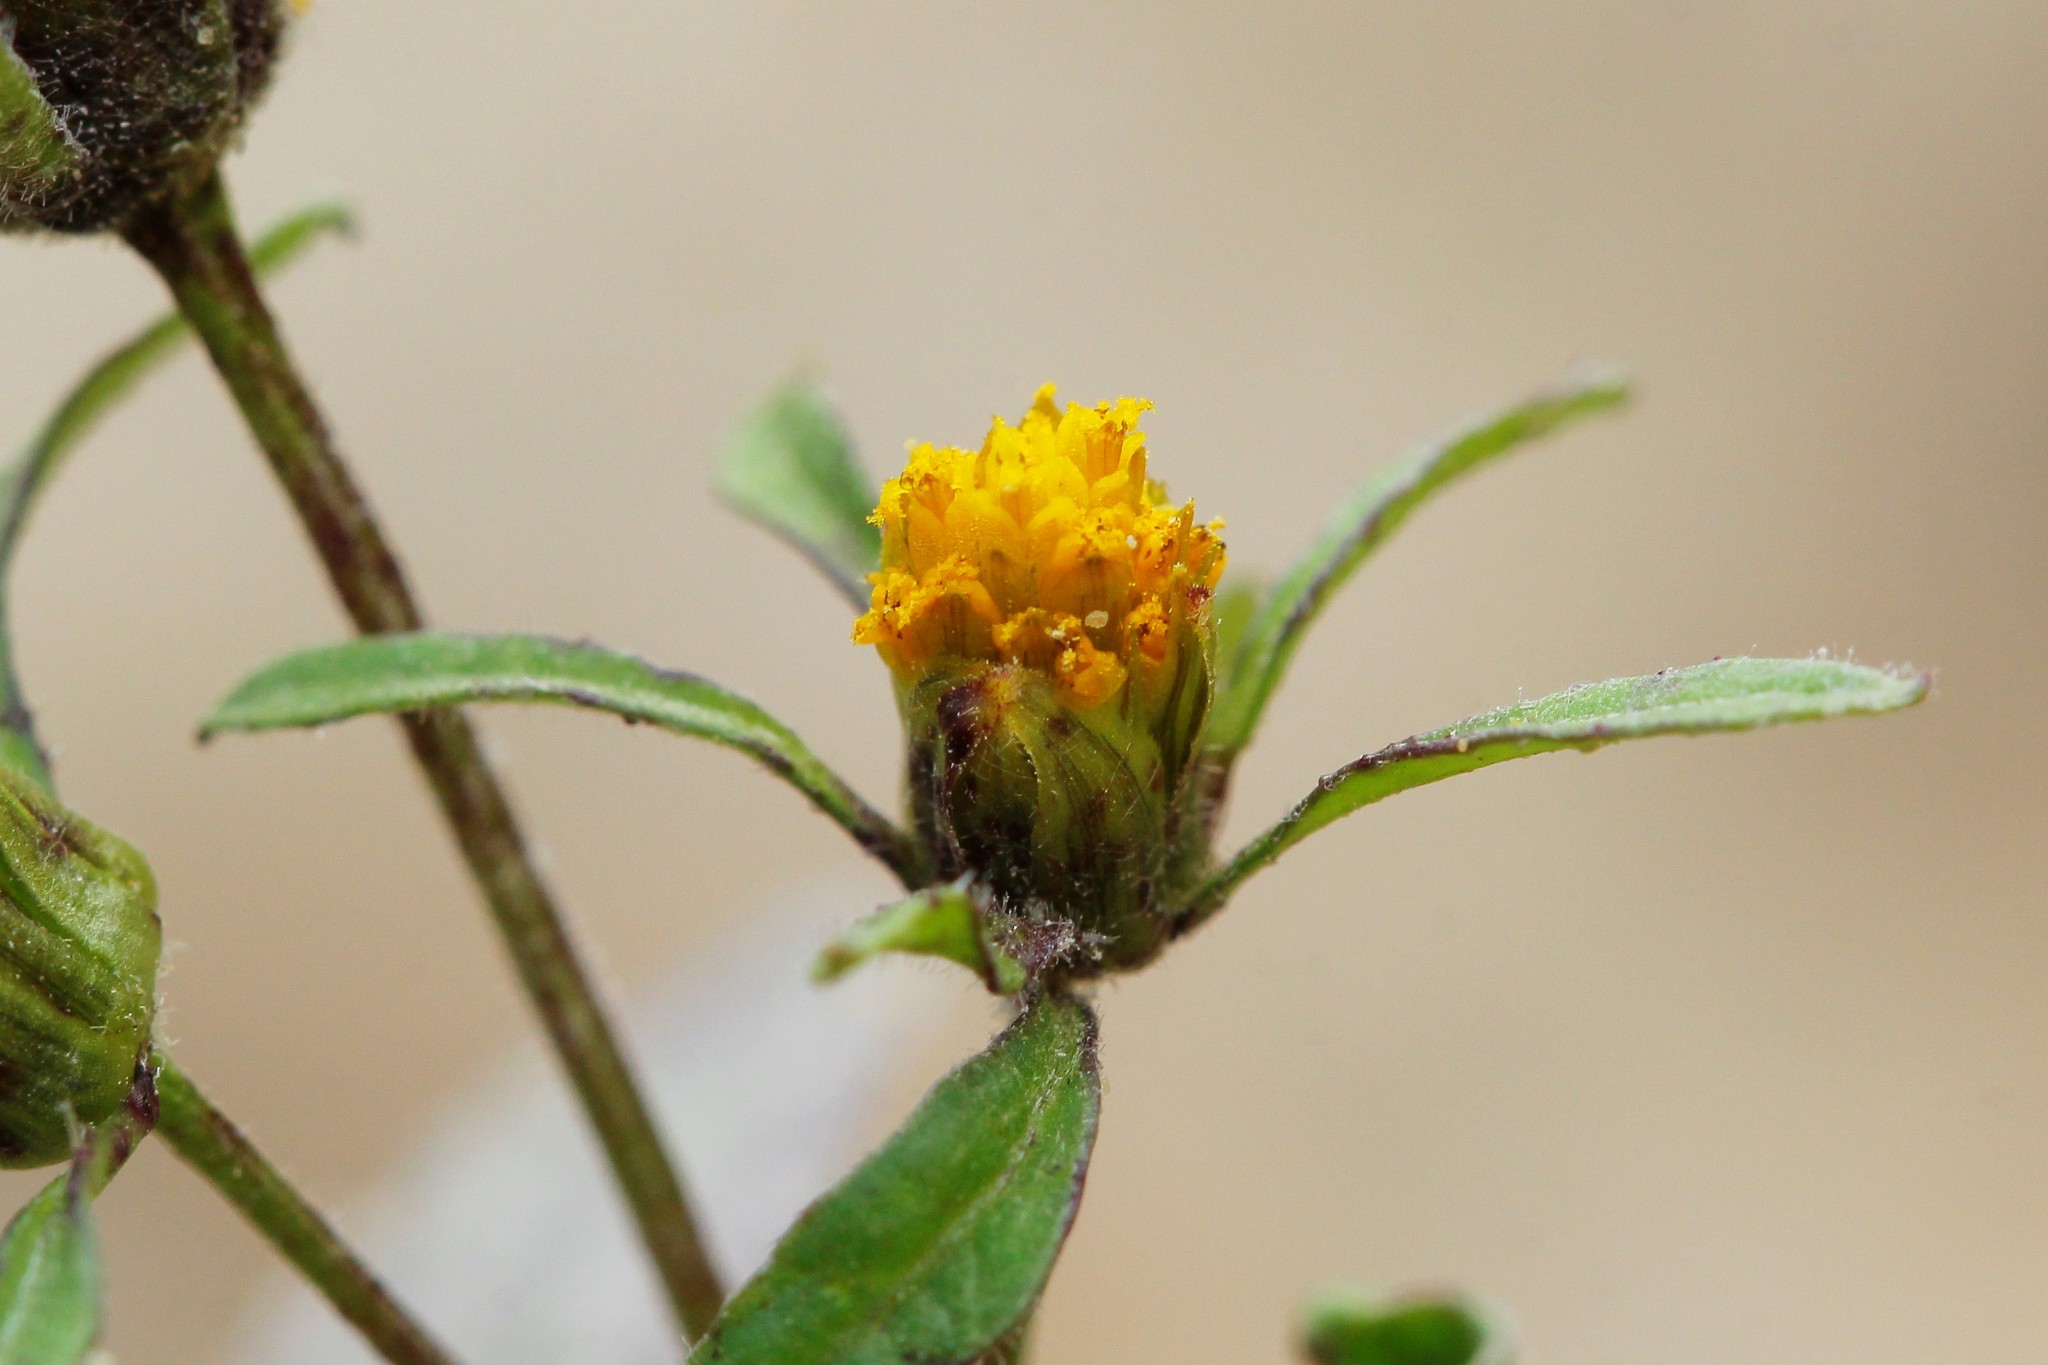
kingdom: Plantae
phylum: Tracheophyta
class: Magnoliopsida
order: Asterales
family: Asteraceae
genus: Bidens
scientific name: Bidens frondosa
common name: Beggarticks
